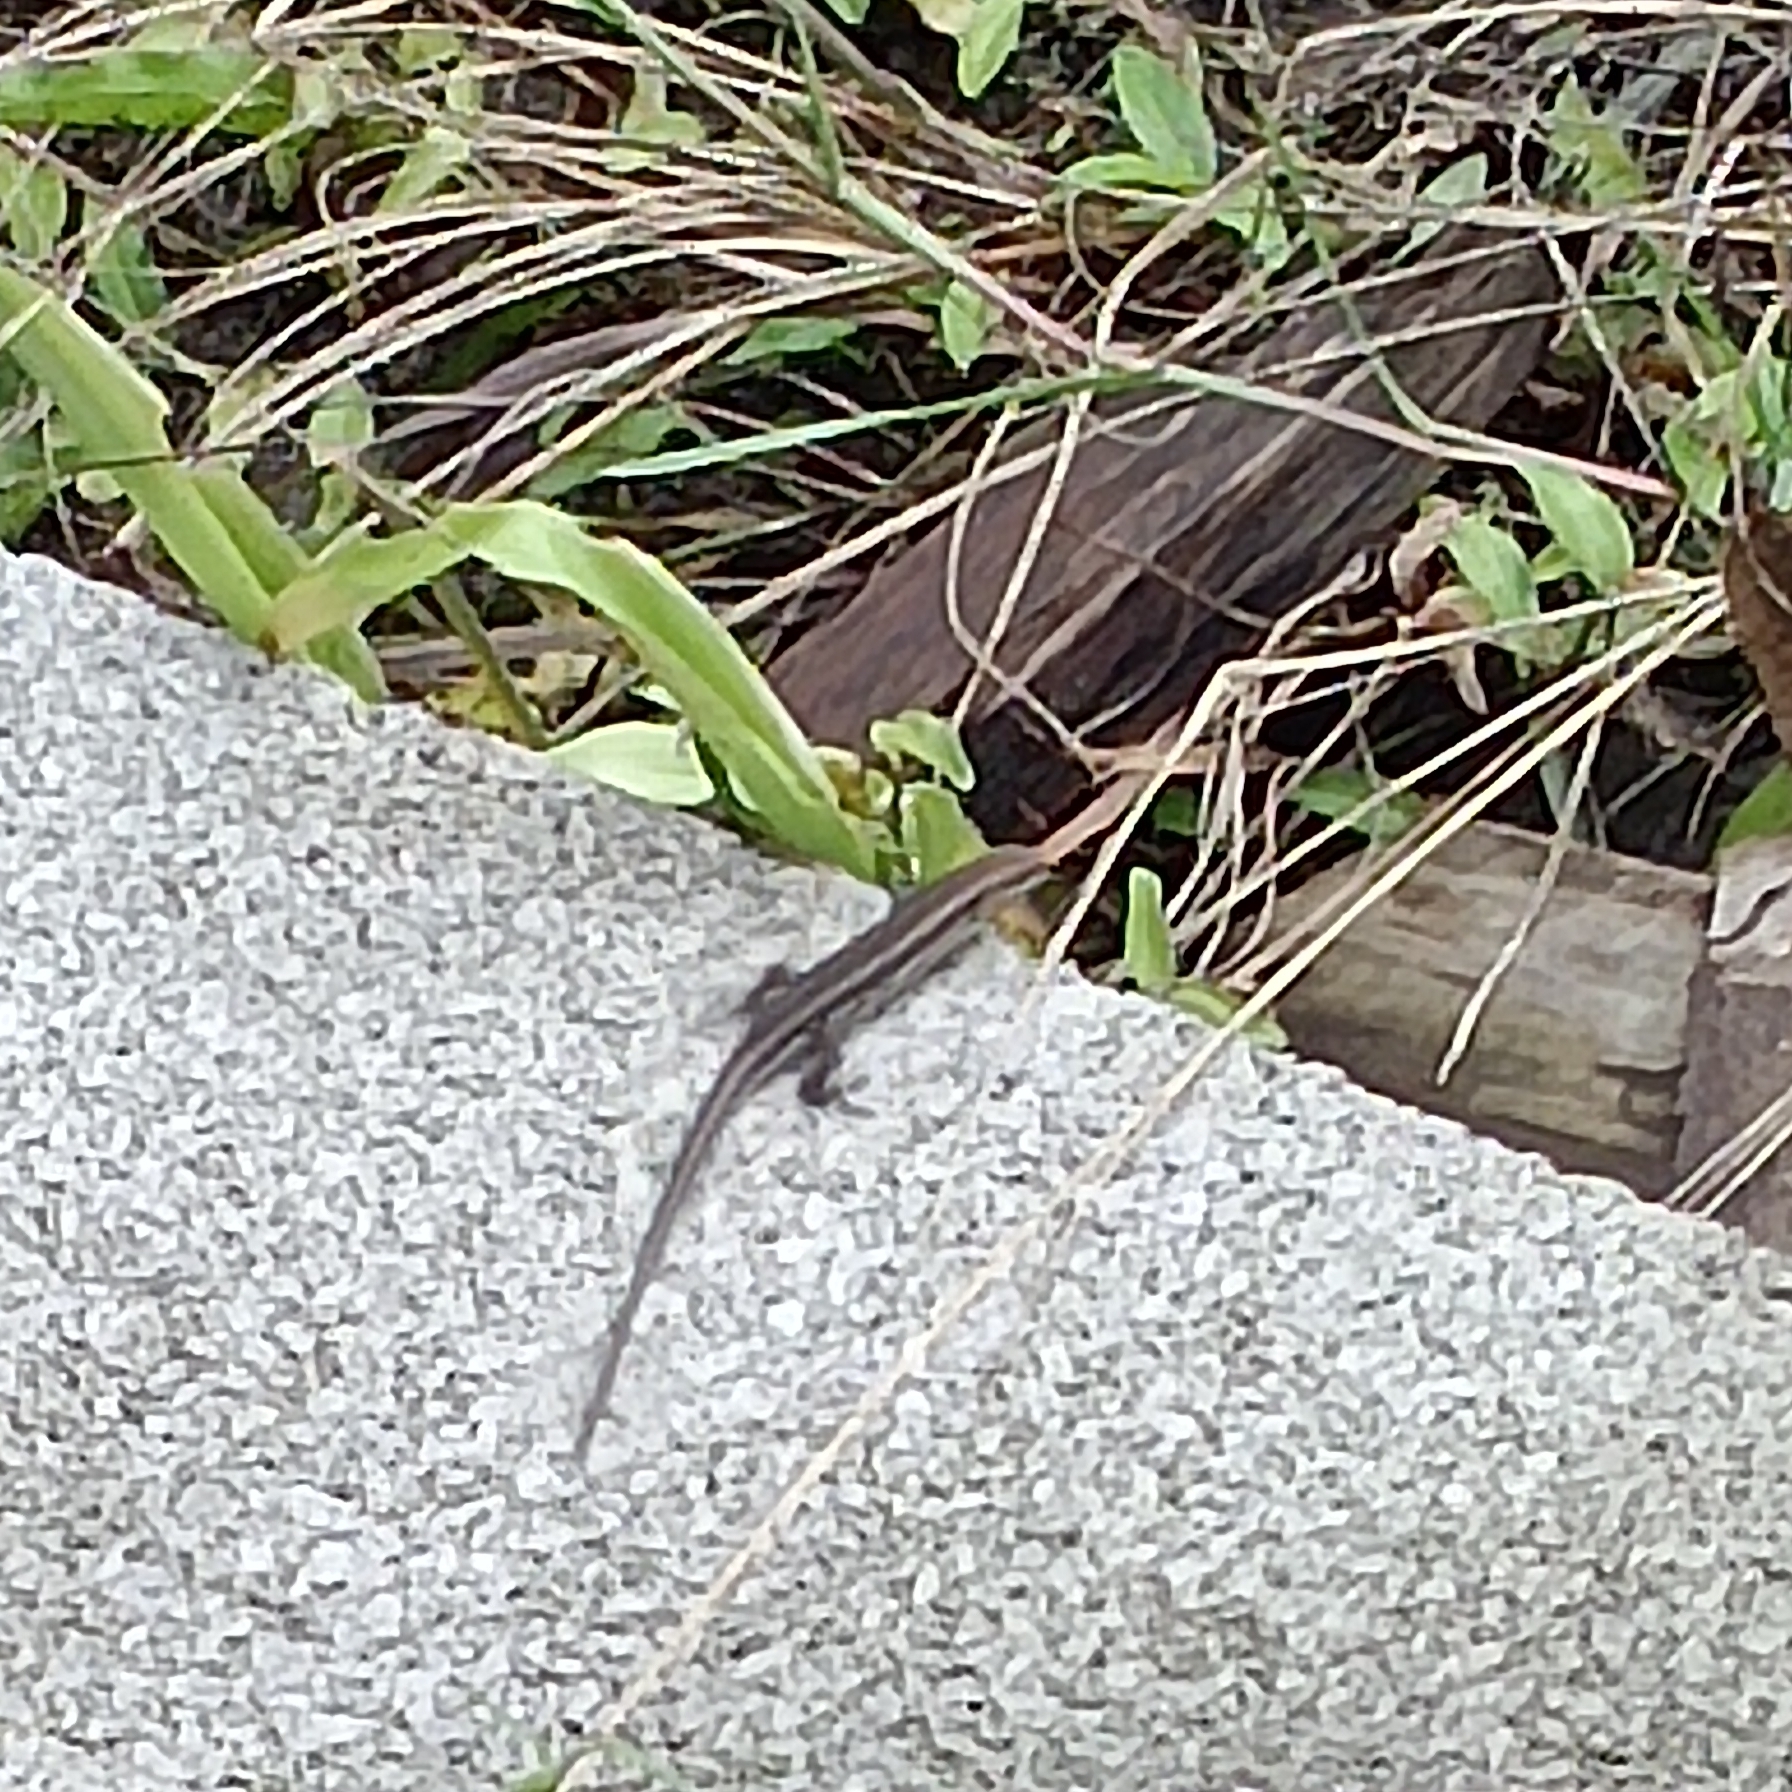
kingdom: Animalia
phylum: Chordata
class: Squamata
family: Scincidae
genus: Trachylepis
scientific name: Trachylepis varia
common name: Eastern variable skink
